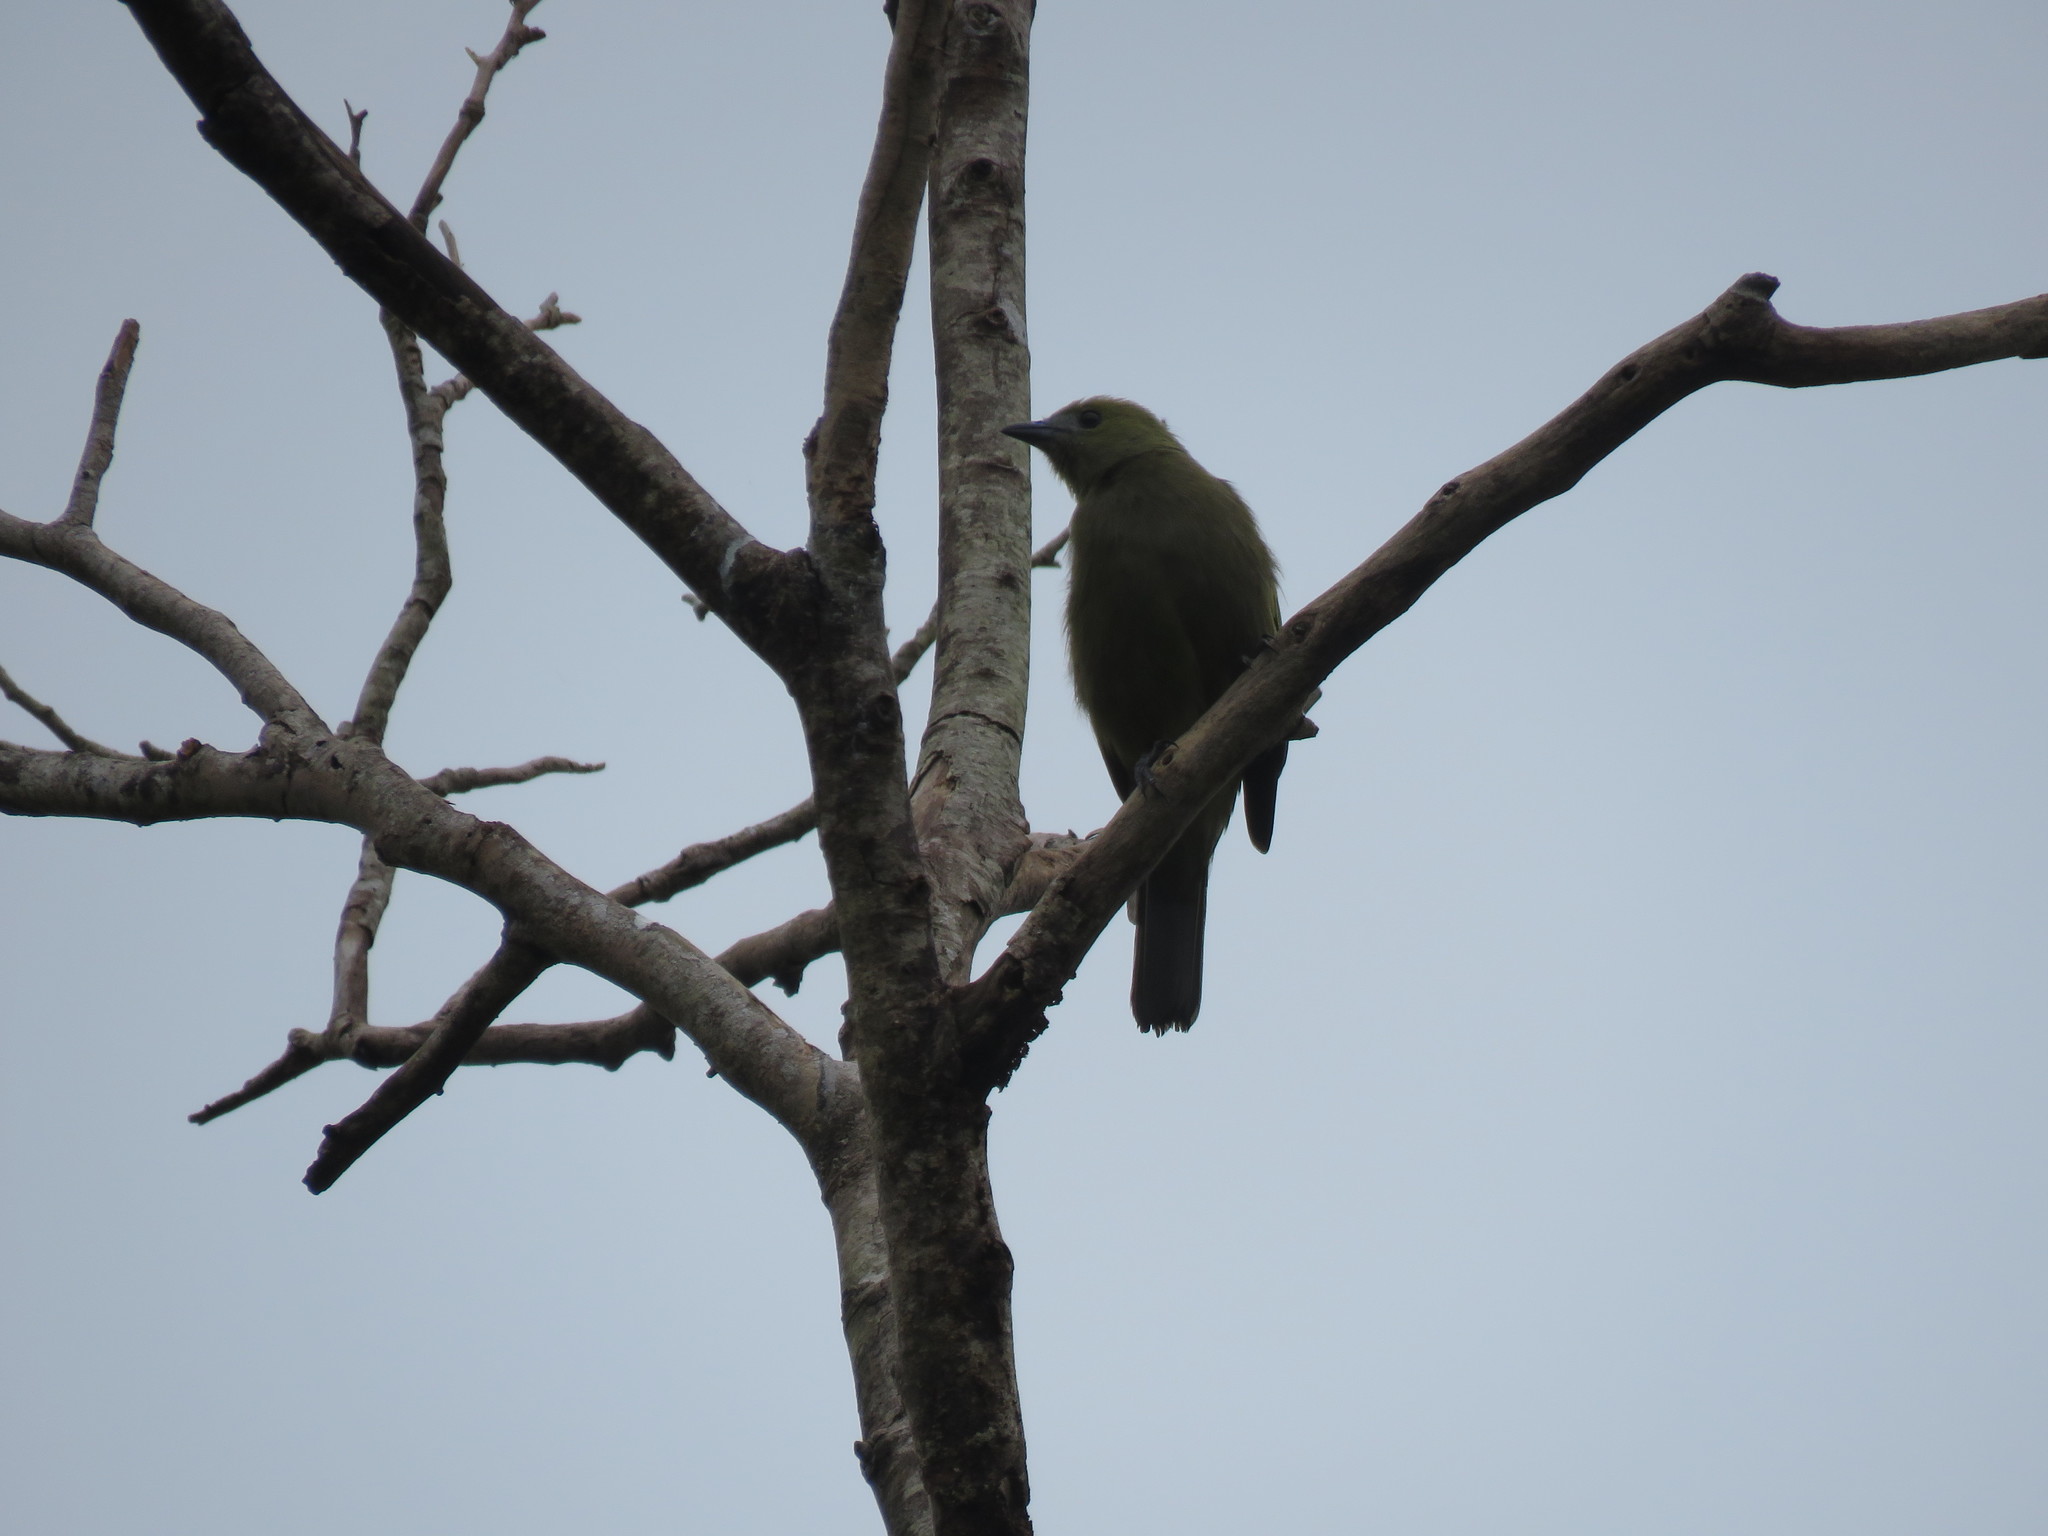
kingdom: Animalia
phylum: Chordata
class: Aves
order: Passeriformes
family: Thraupidae
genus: Thraupis
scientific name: Thraupis palmarum
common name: Palm tanager
